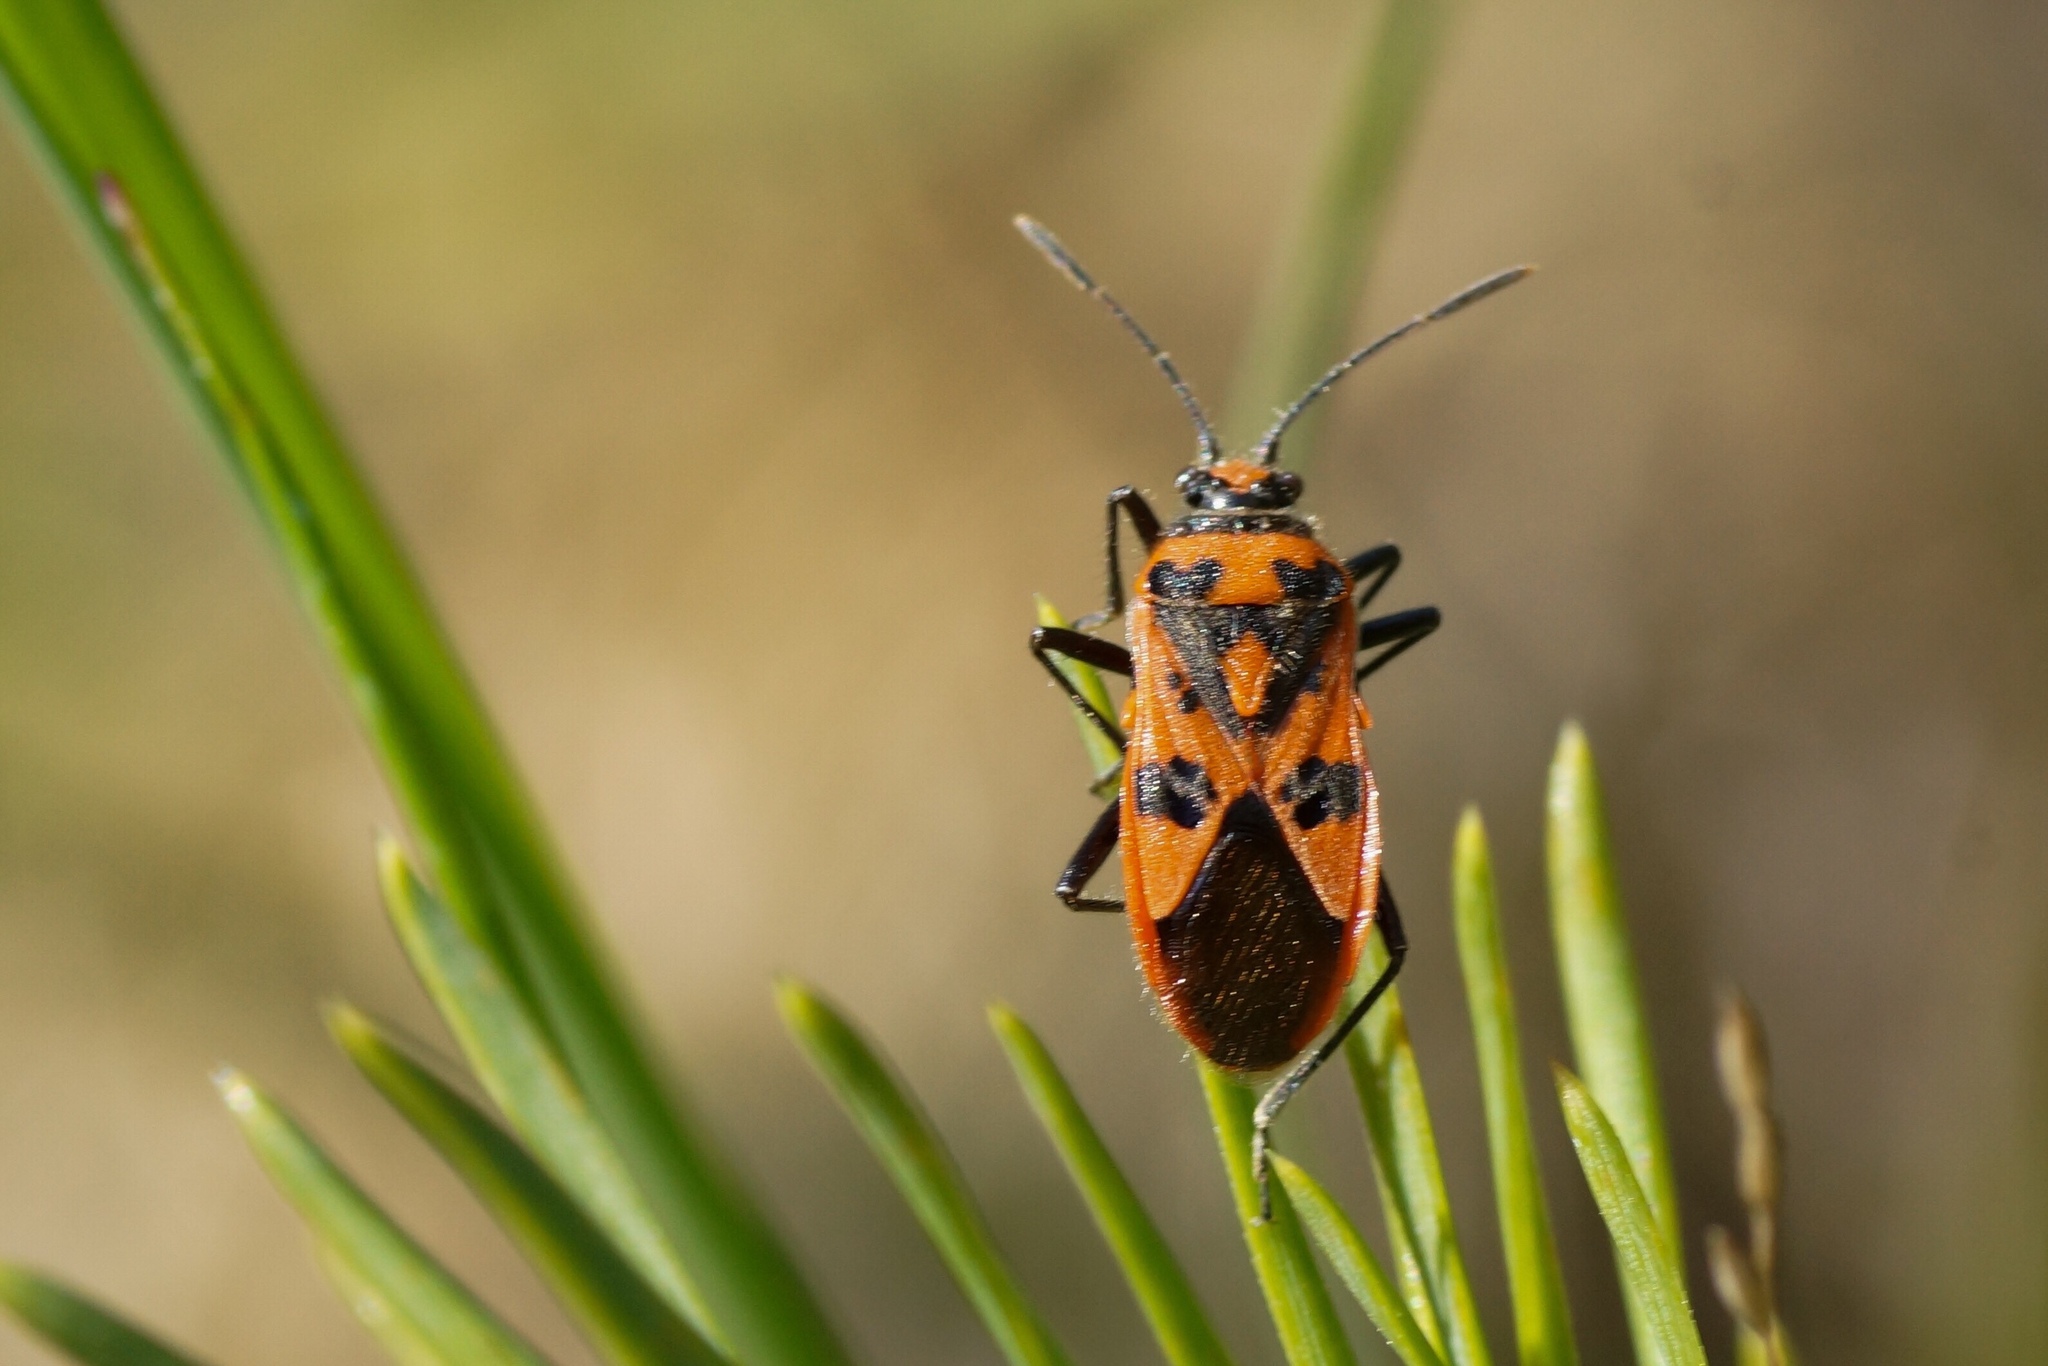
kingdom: Animalia
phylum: Arthropoda
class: Insecta
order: Hemiptera
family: Rhopalidae
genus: Corizus
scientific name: Corizus hyoscyami
